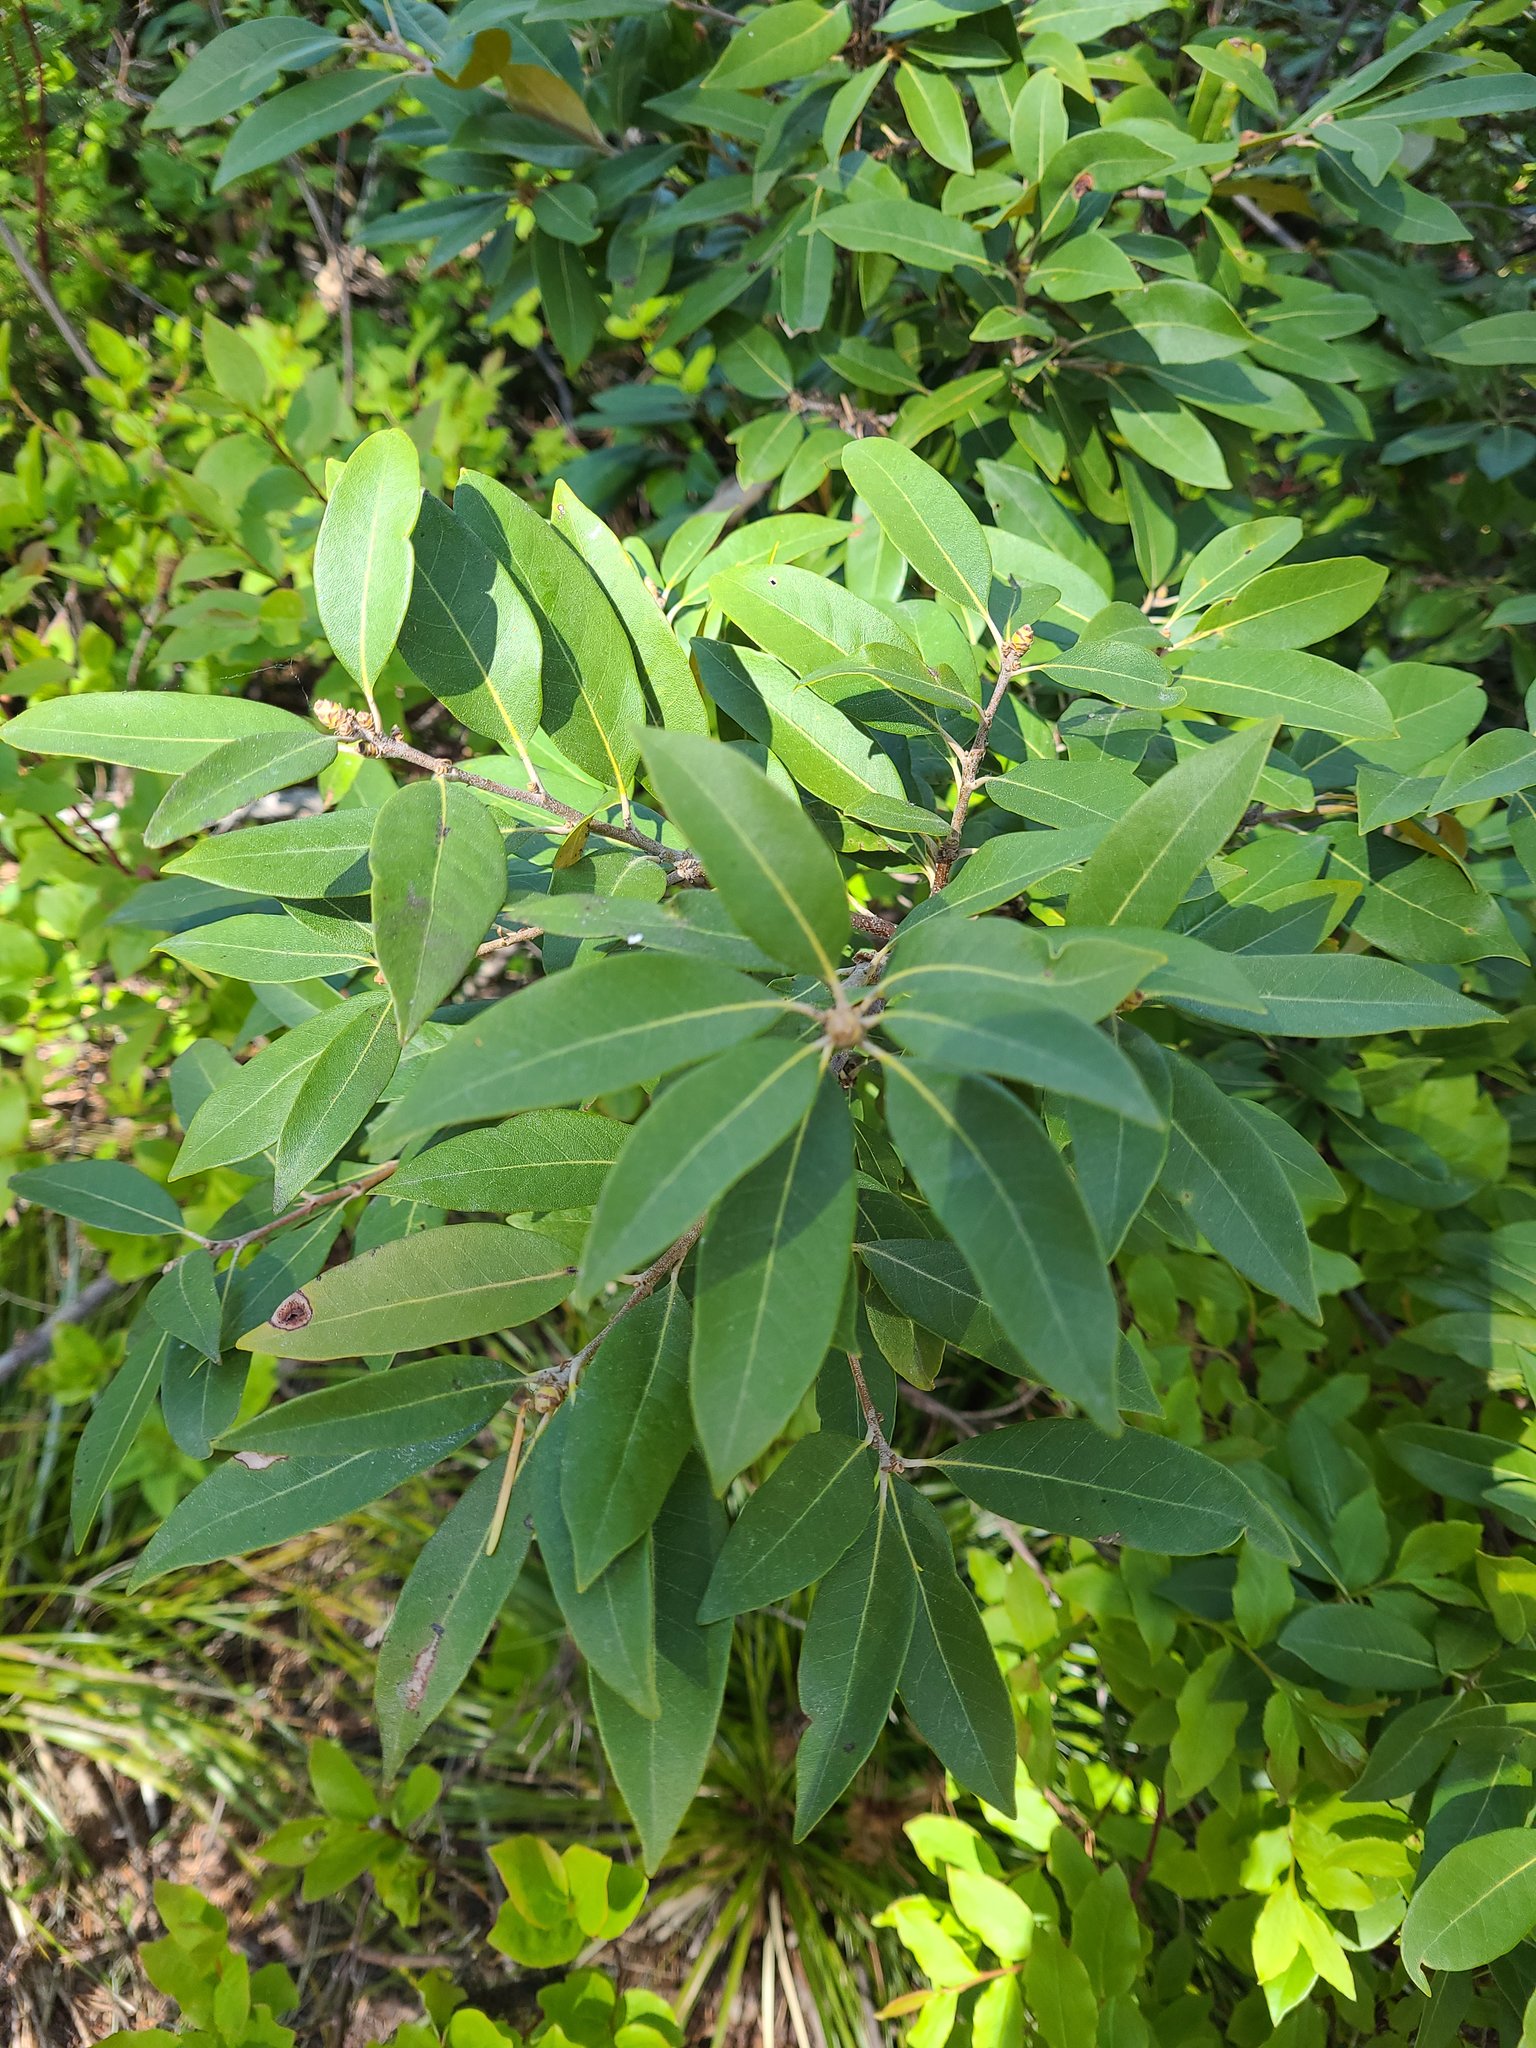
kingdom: Plantae
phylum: Tracheophyta
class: Magnoliopsida
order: Fagales
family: Fagaceae
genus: Chrysolepis
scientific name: Chrysolepis chrysophylla
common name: Giant chinquapin
